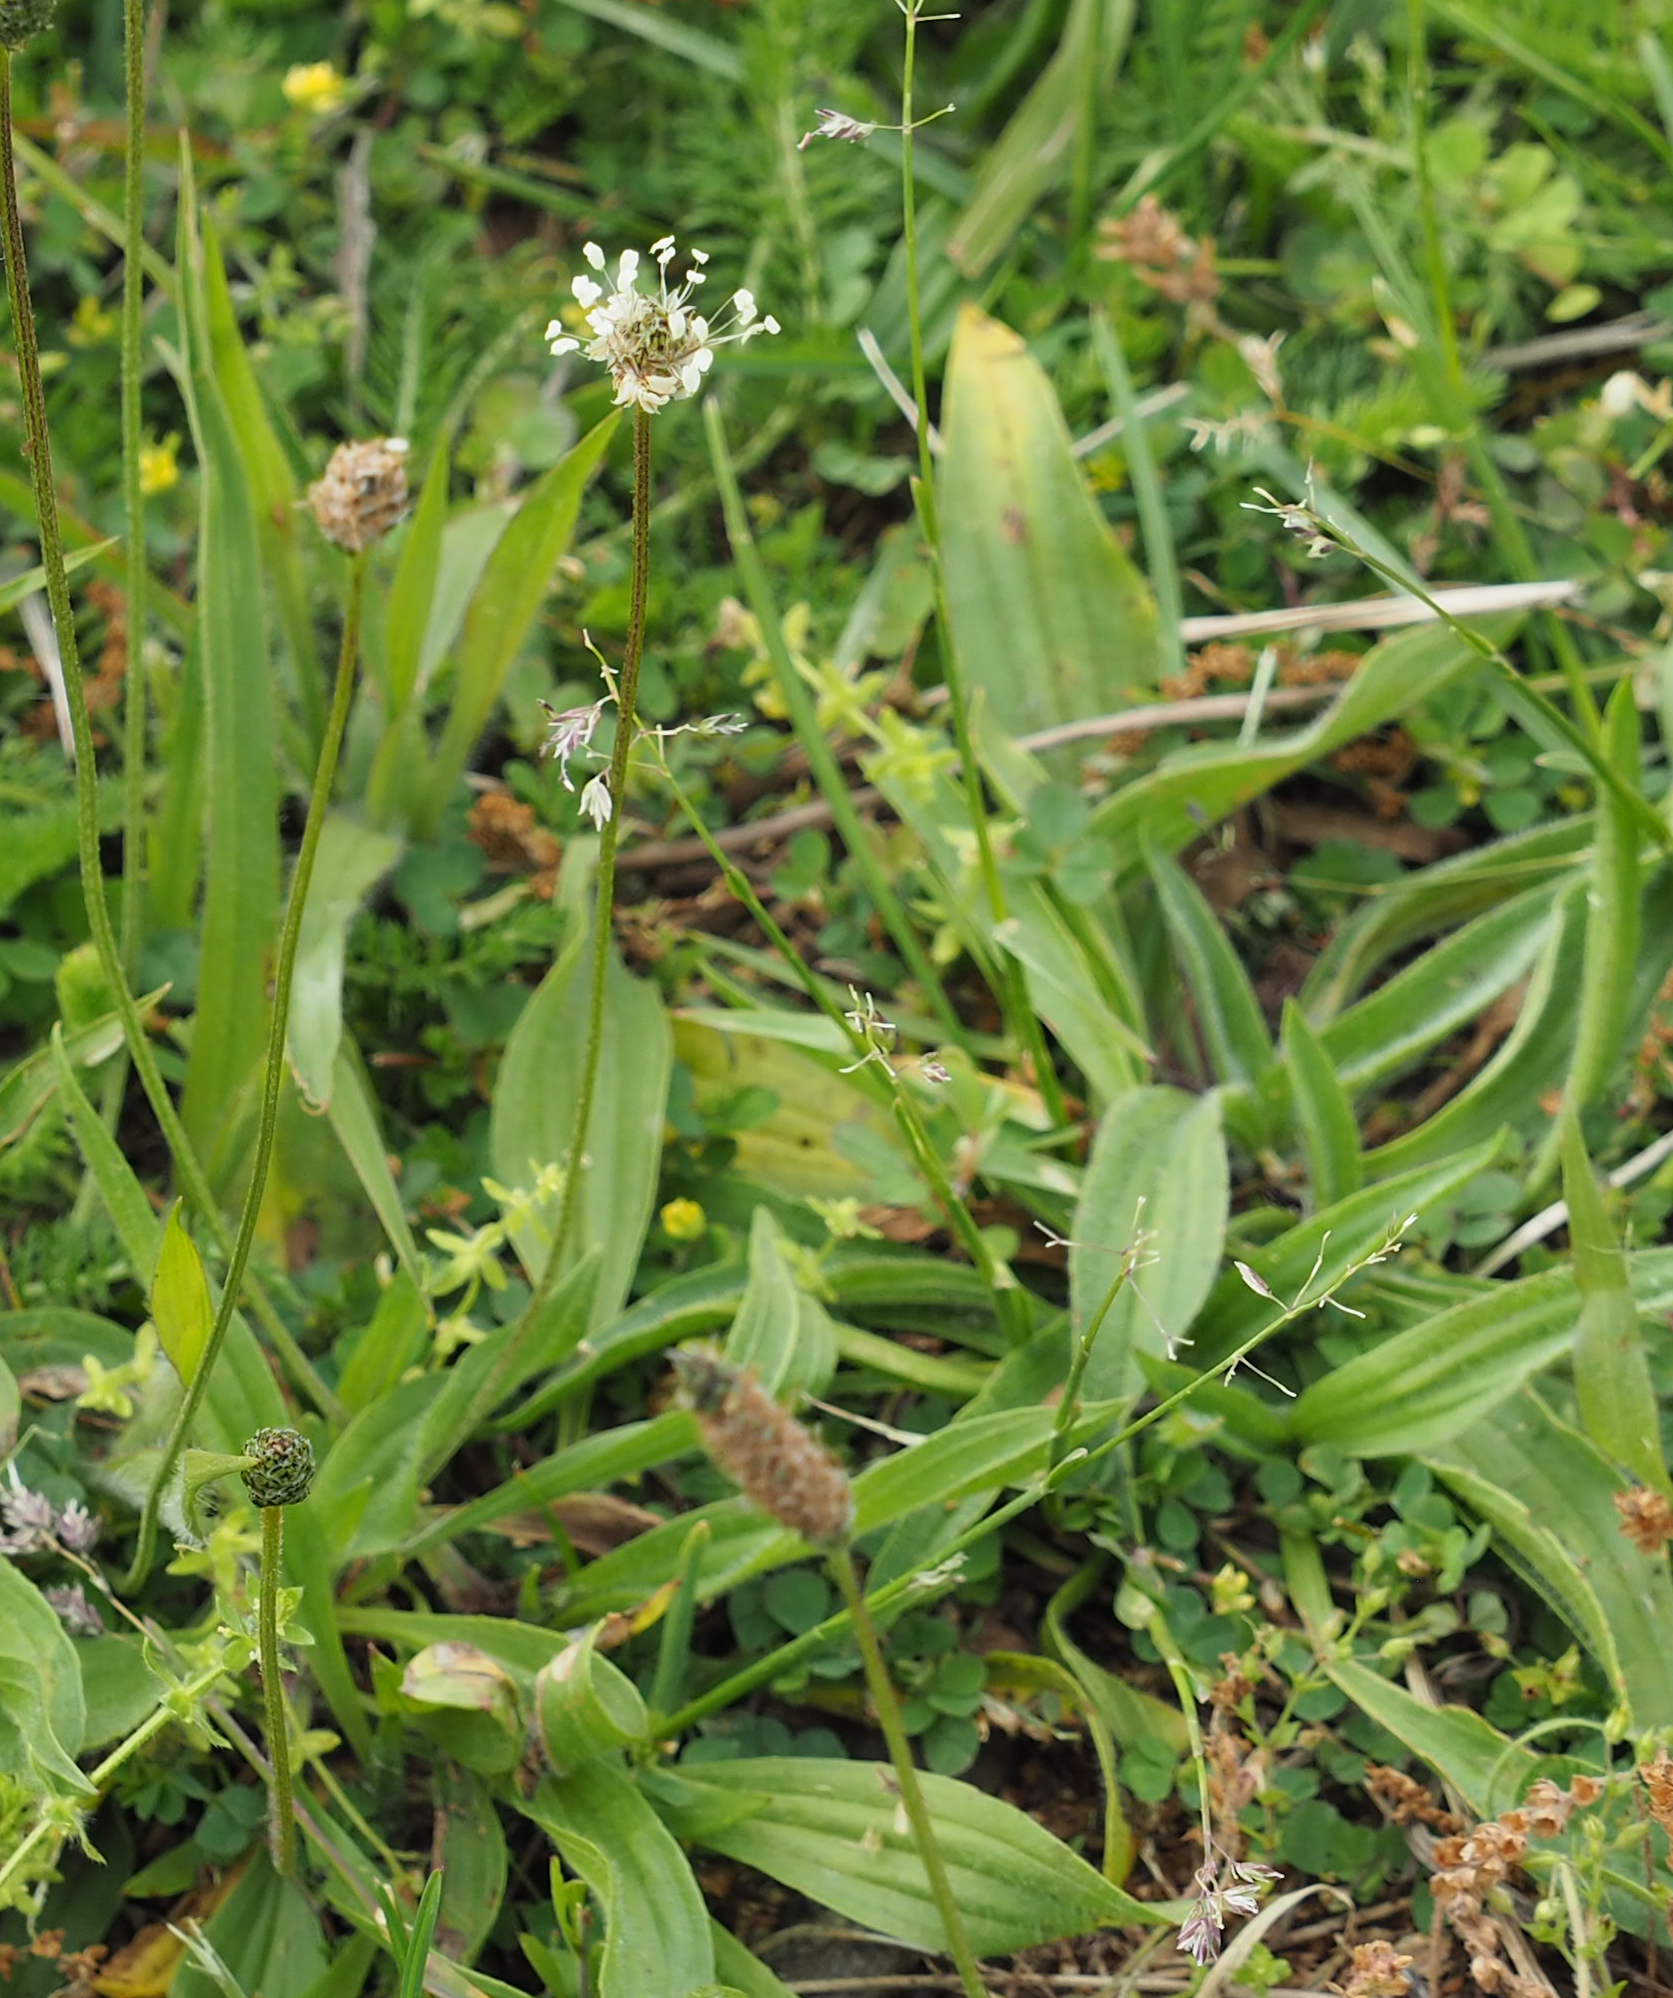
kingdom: Plantae
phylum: Tracheophyta
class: Magnoliopsida
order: Lamiales
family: Plantaginaceae
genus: Plantago
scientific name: Plantago lanceolata
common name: Ribwort plantain
